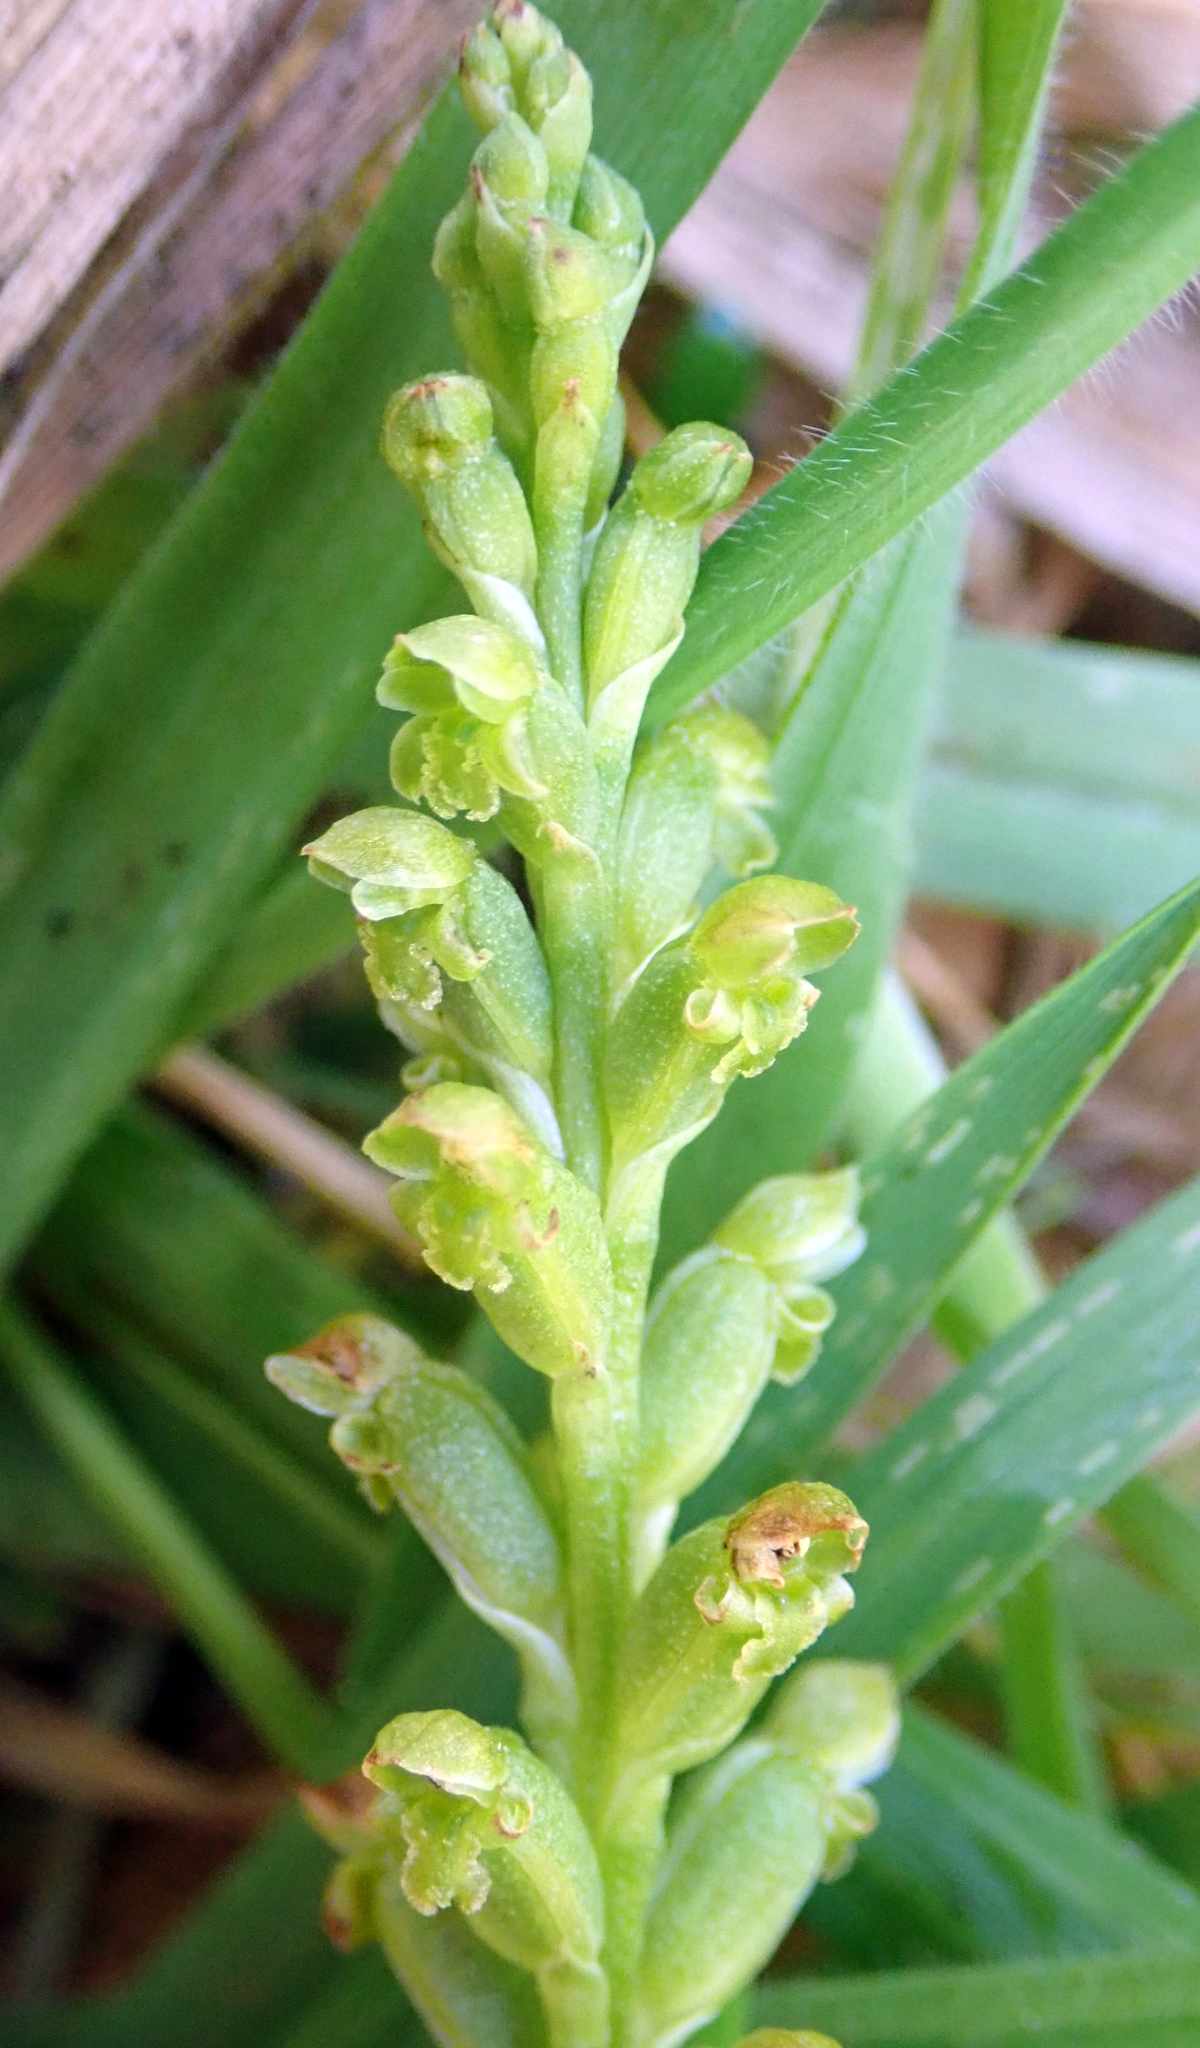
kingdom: Plantae
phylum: Tracheophyta
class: Liliopsida
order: Asparagales
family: Orchidaceae
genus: Microtis
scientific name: Microtis unifolia
